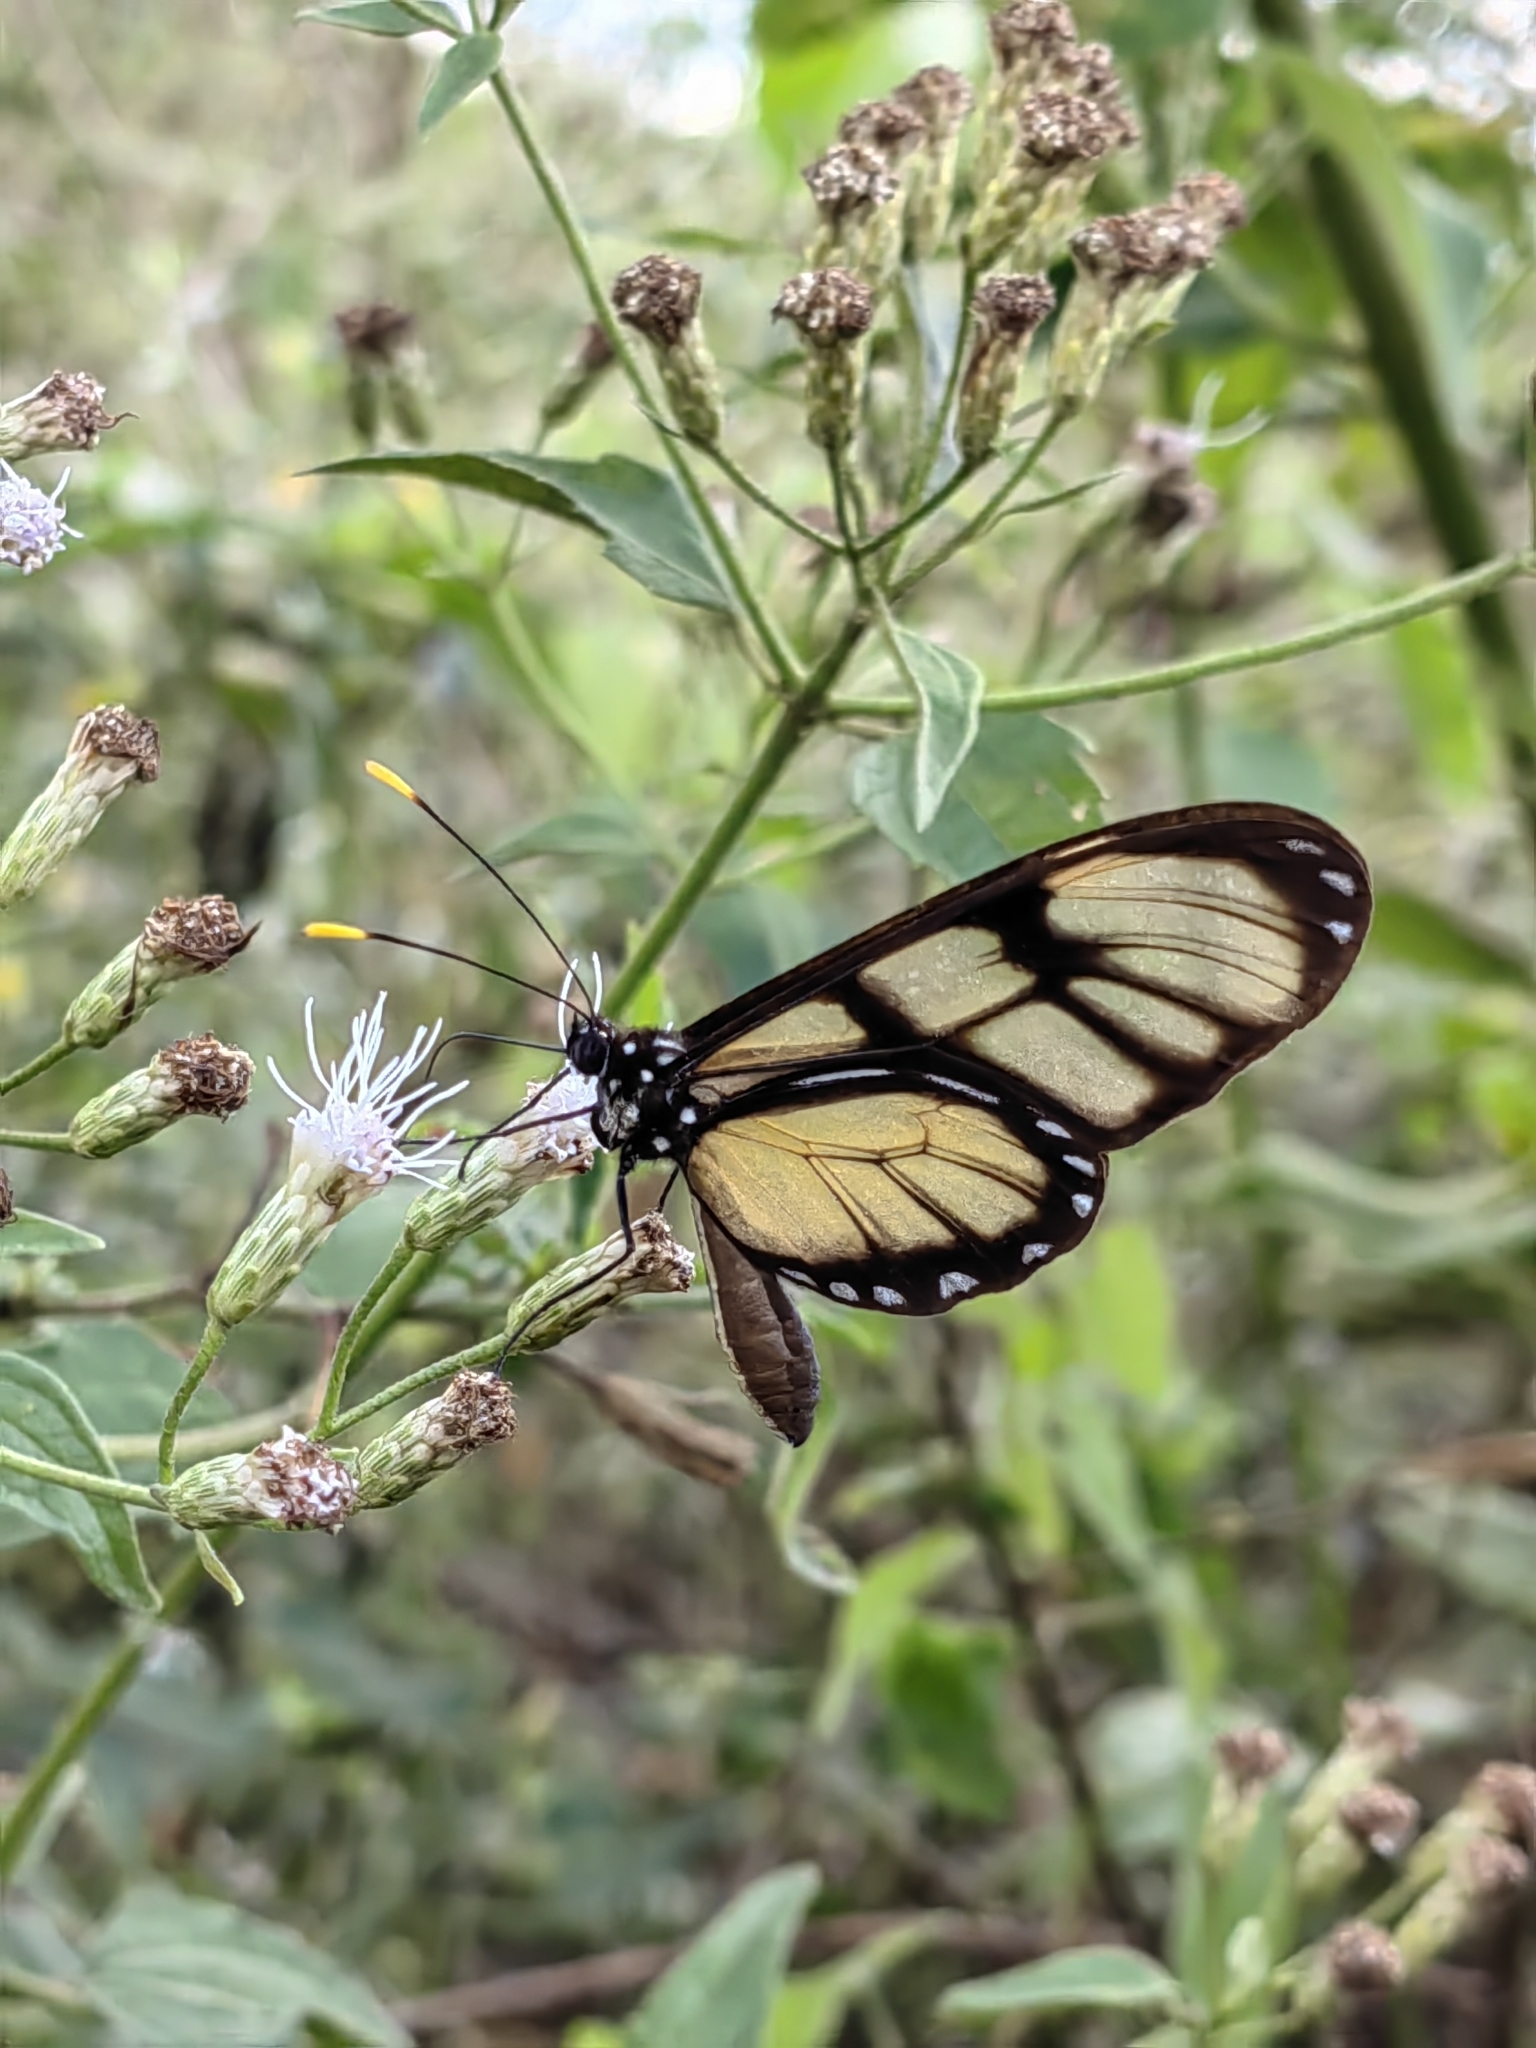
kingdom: Animalia
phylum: Arthropoda
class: Insecta
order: Lepidoptera
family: Nymphalidae
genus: Dircenna
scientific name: Dircenna dero
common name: Dero clearwing
